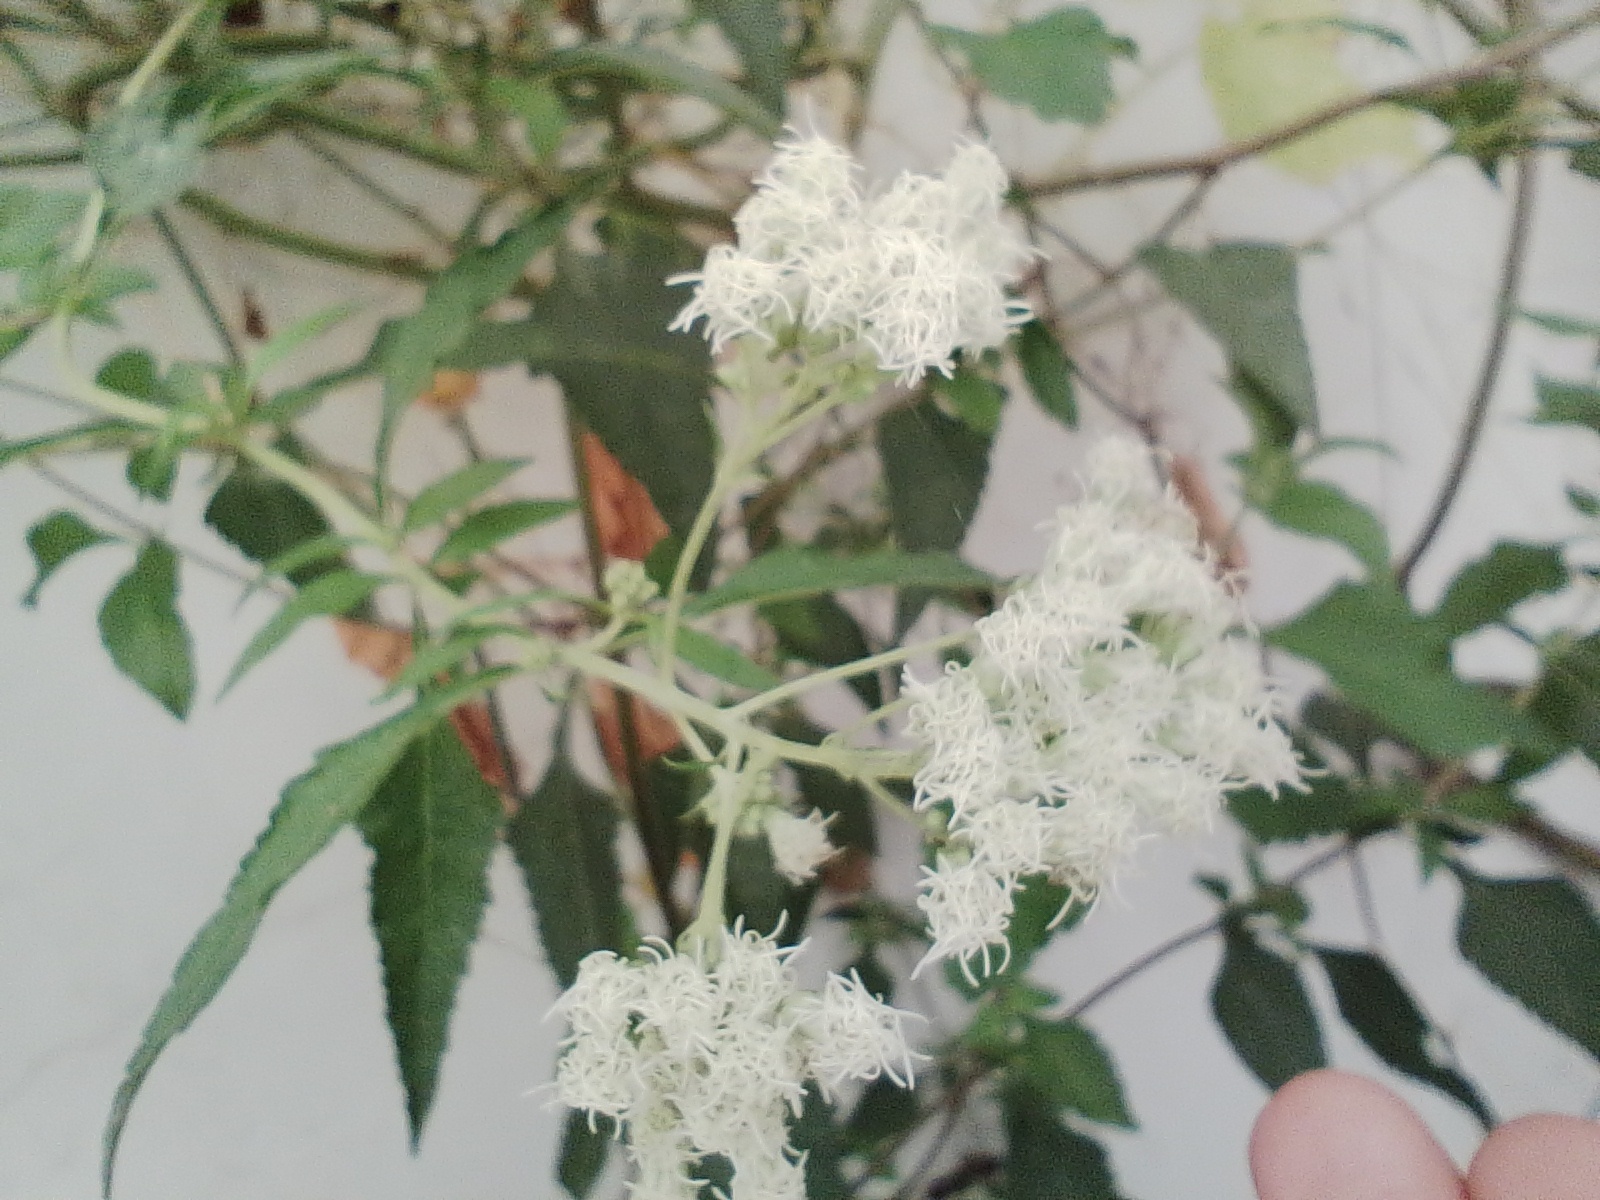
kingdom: Plantae
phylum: Tracheophyta
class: Magnoliopsida
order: Asterales
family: Asteraceae
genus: Austroeupatorium
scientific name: Austroeupatorium inulifolium
